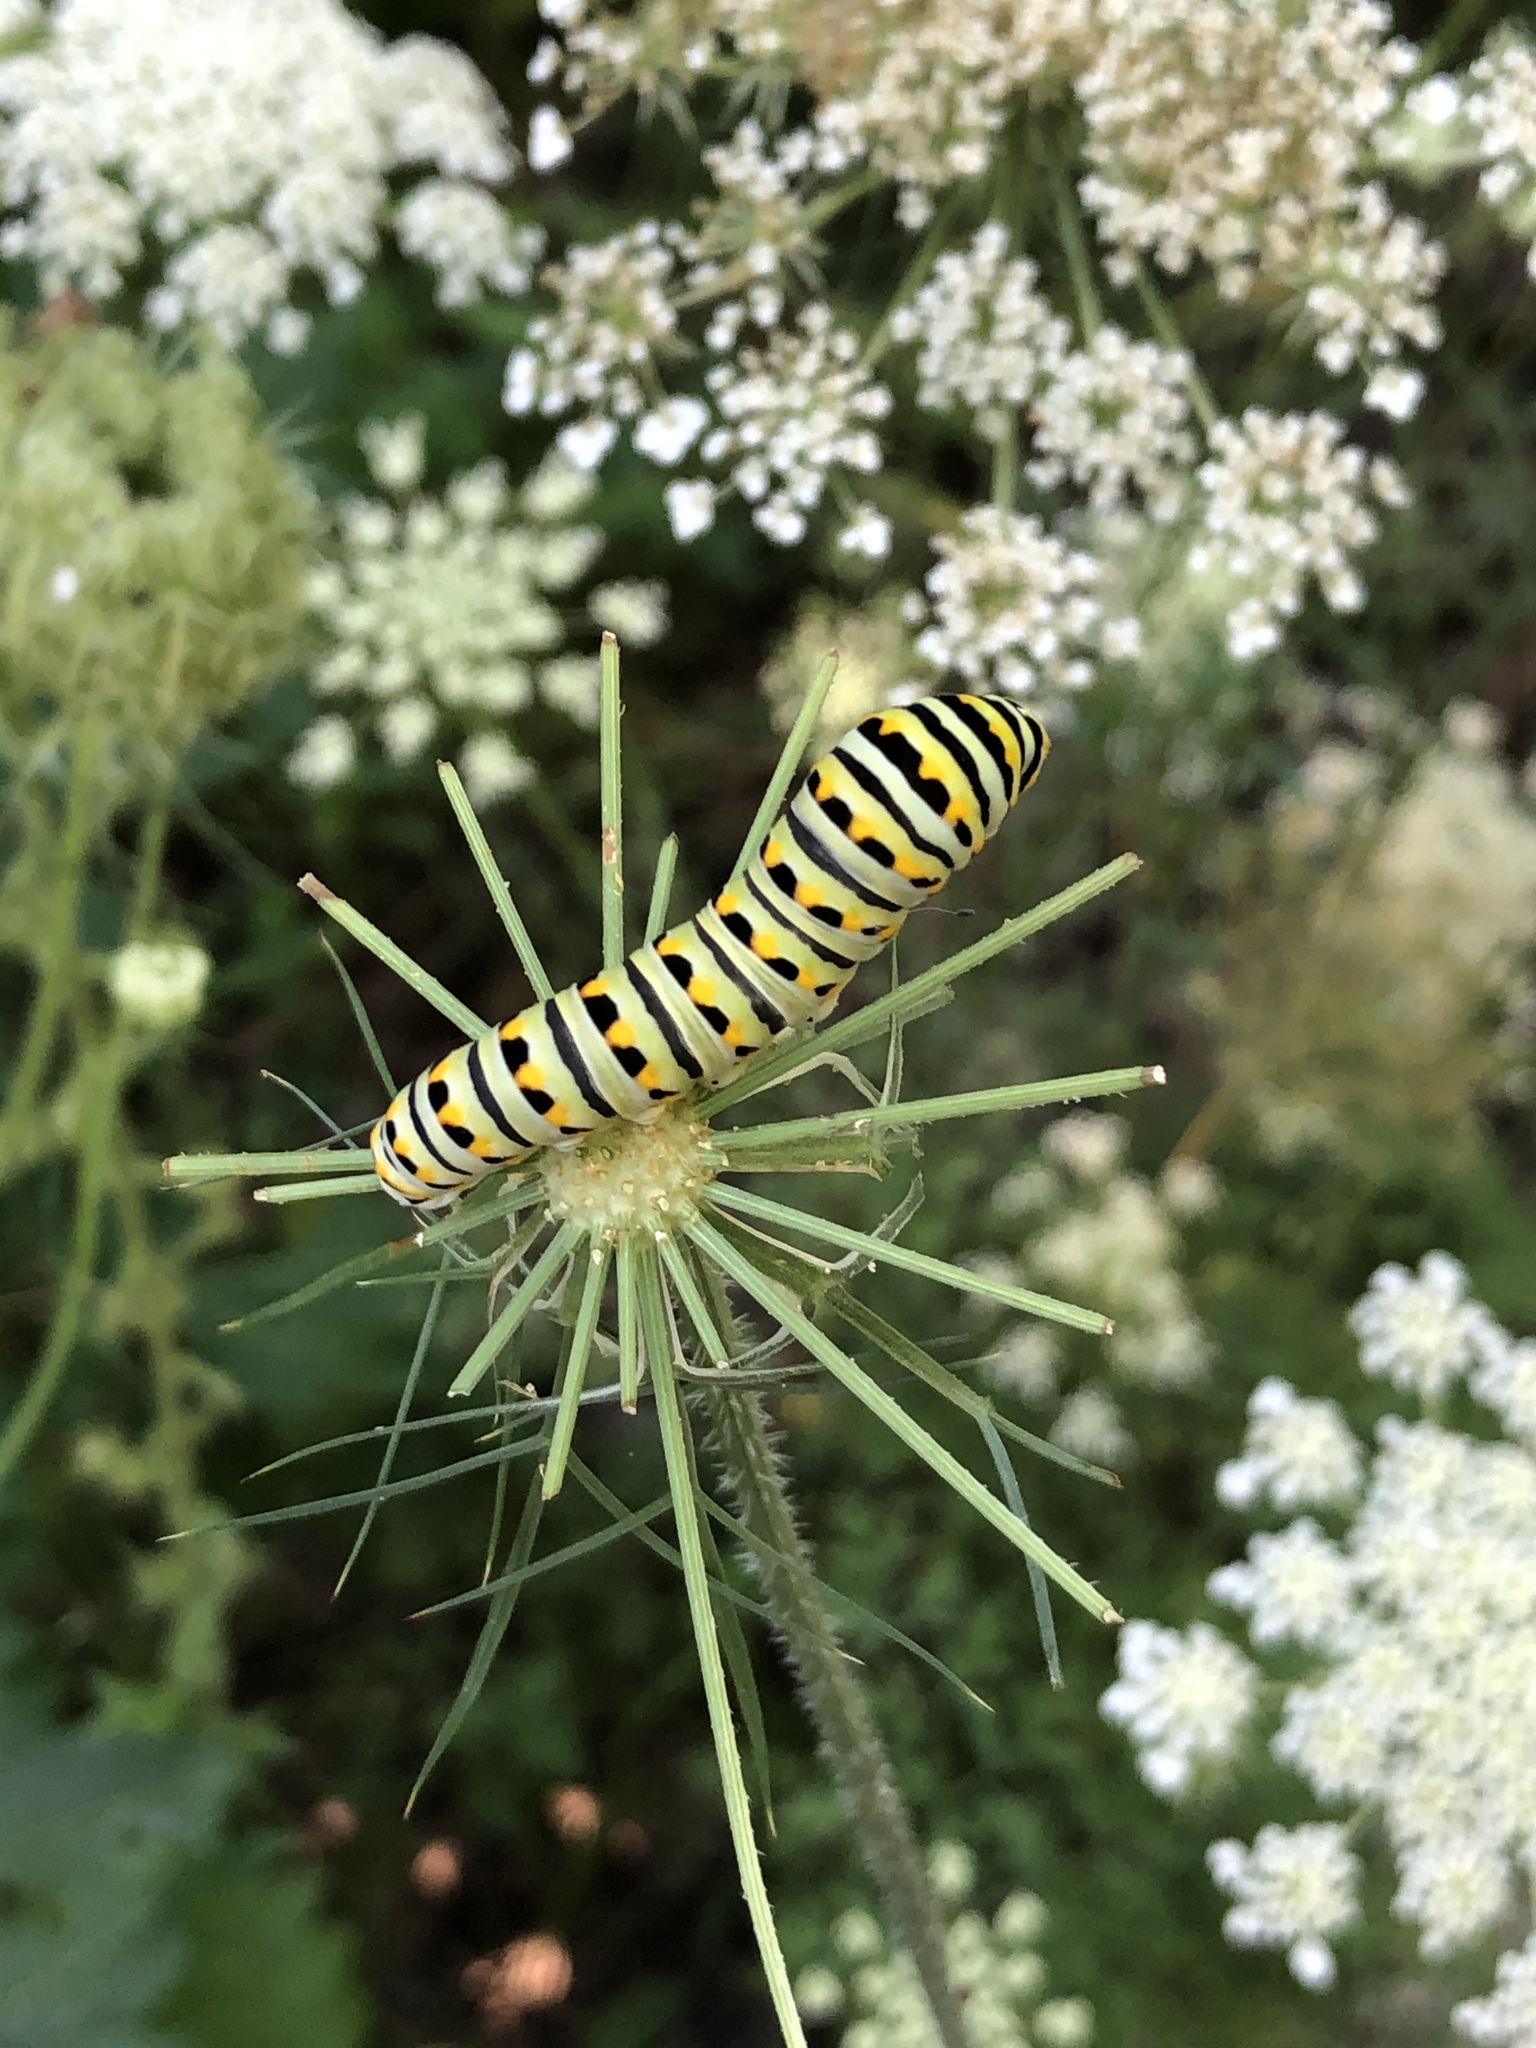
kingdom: Animalia
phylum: Arthropoda
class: Insecta
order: Lepidoptera
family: Papilionidae
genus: Papilio
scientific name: Papilio polyxenes
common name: Black swallowtail
